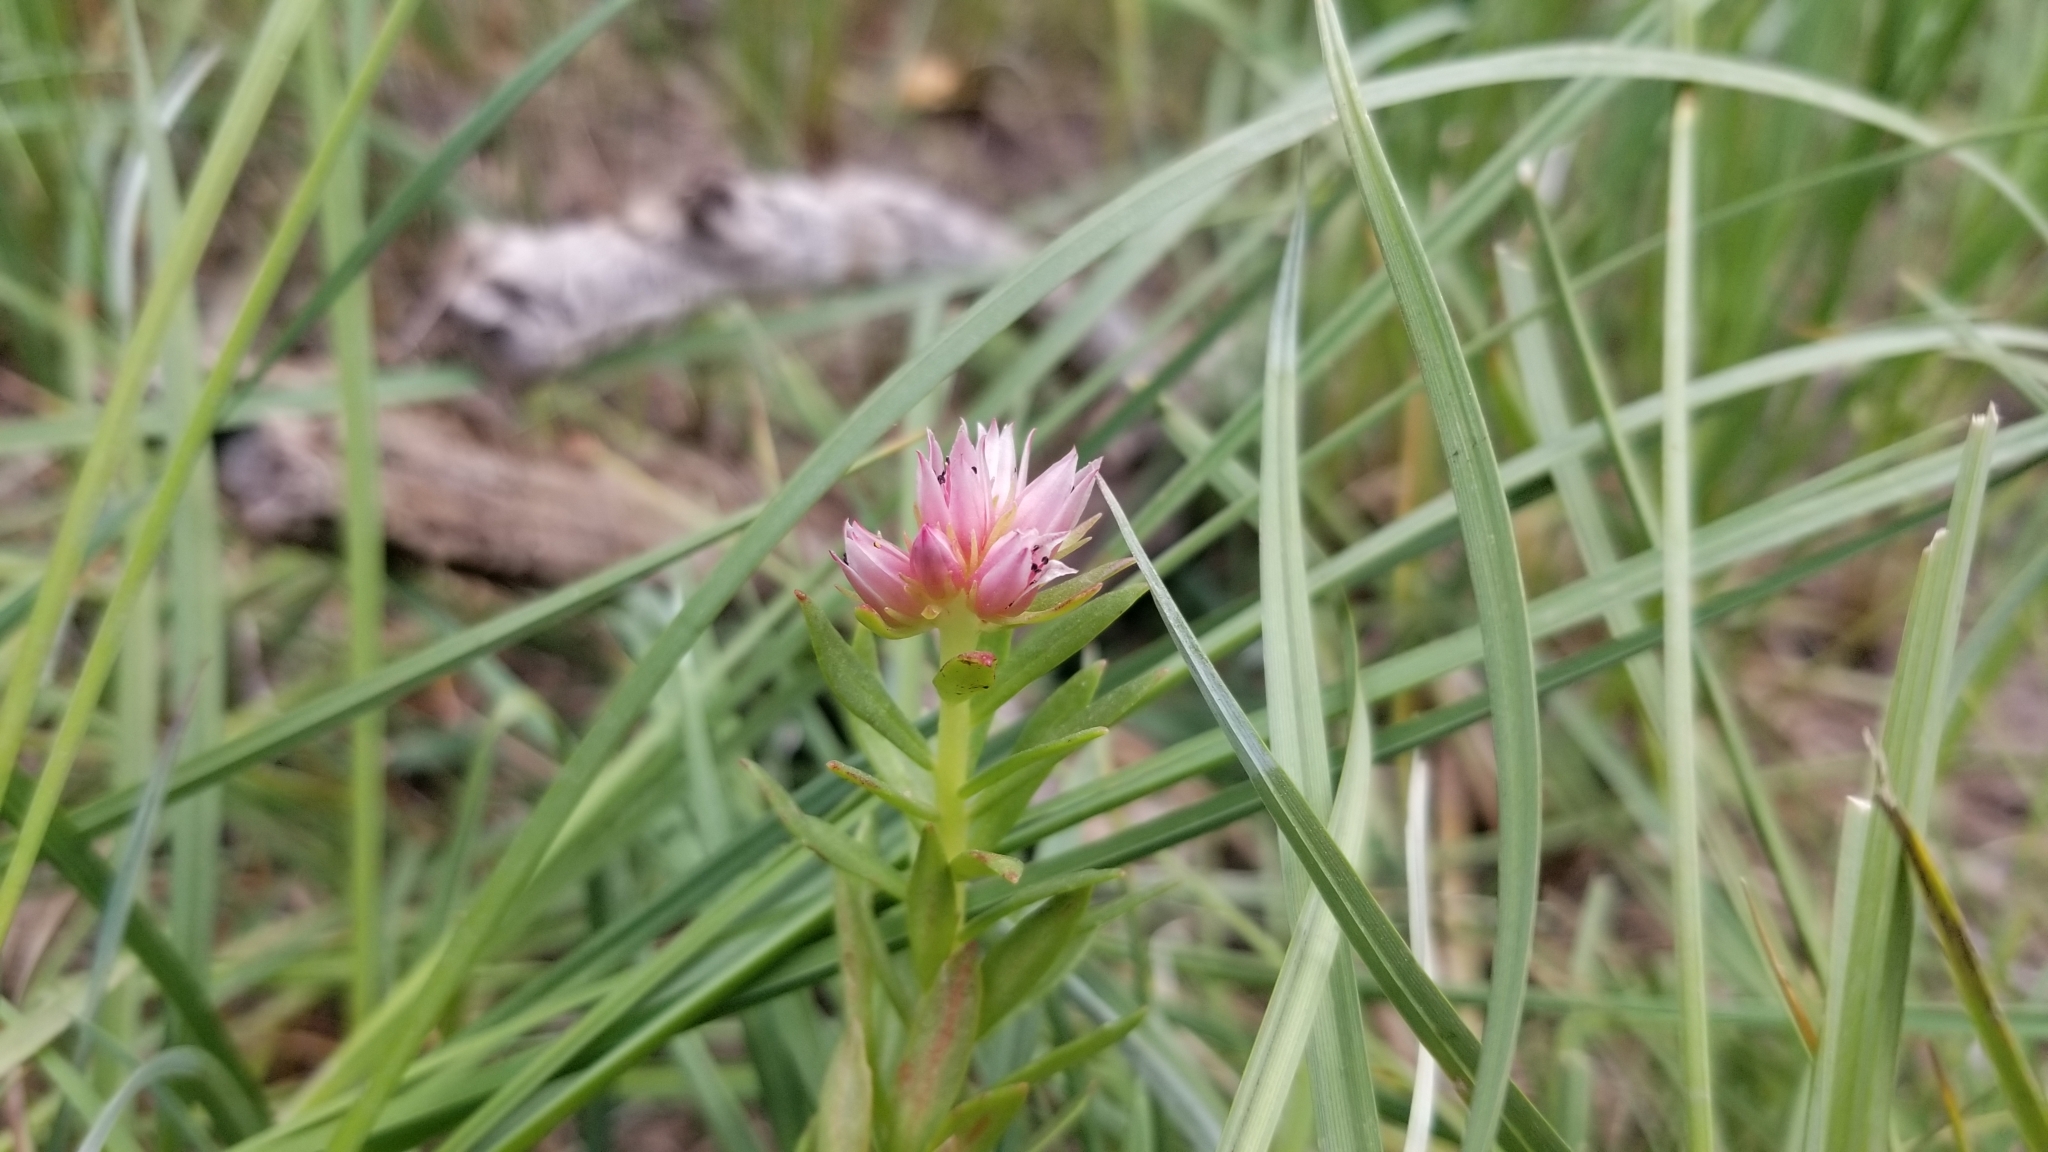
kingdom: Plantae
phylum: Tracheophyta
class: Magnoliopsida
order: Saxifragales
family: Crassulaceae
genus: Rhodiola
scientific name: Rhodiola rhodantha
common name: Red orpine
